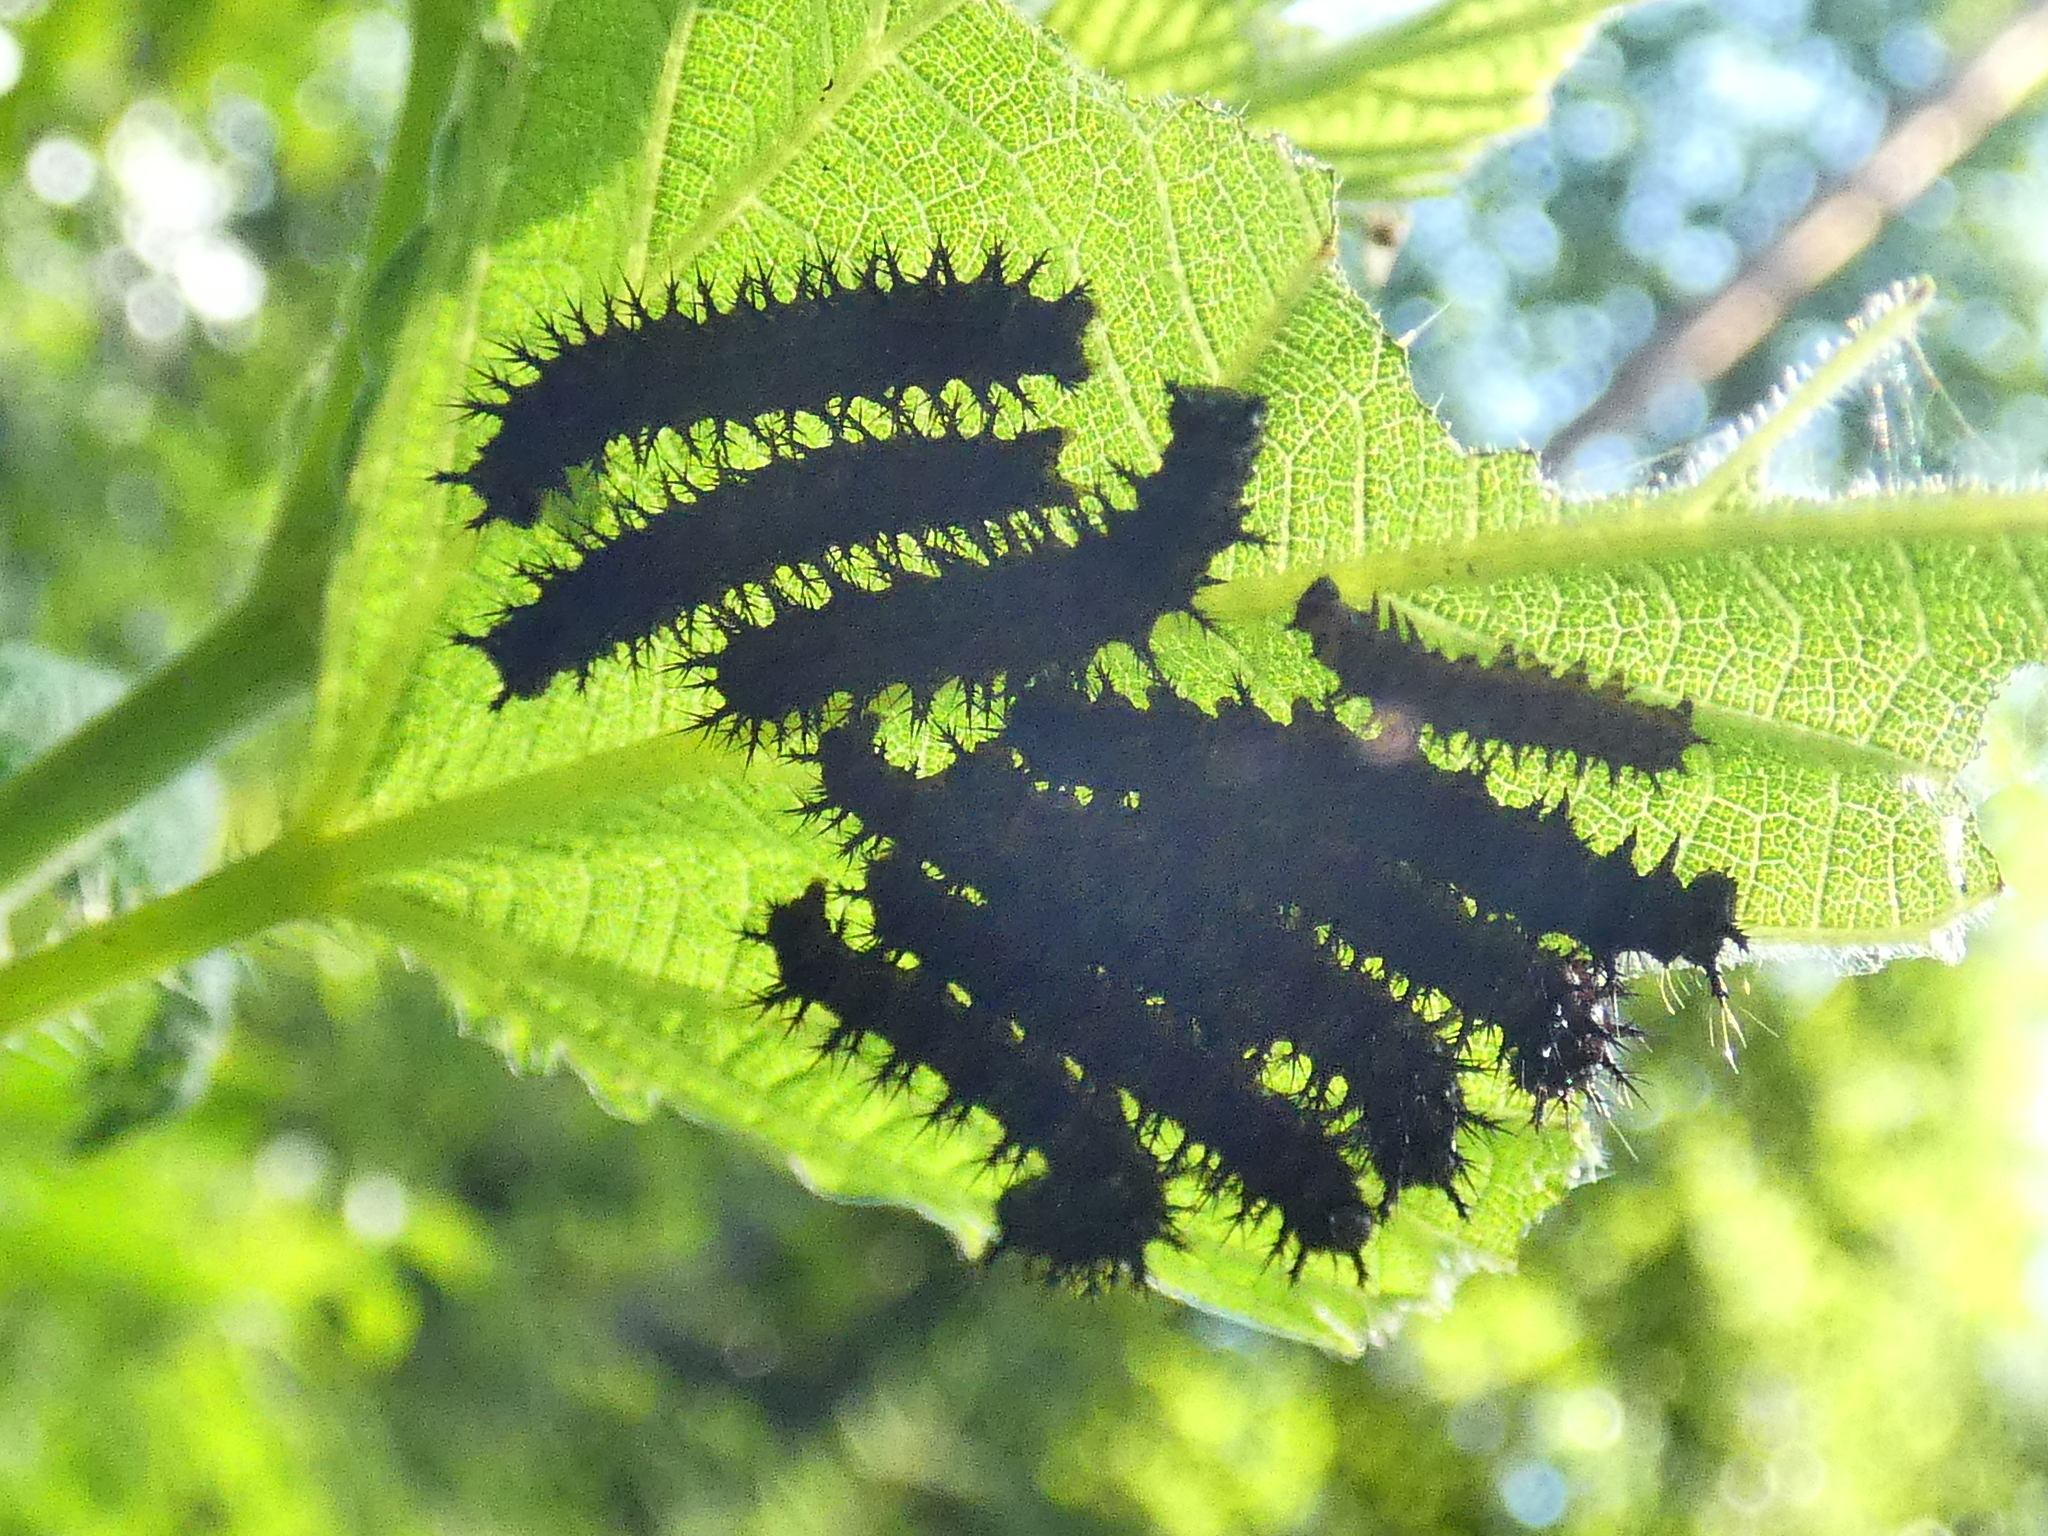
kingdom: Animalia
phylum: Arthropoda
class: Insecta
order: Lepidoptera
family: Nymphalidae
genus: Araschnia
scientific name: Araschnia levana
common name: Map butterfly
